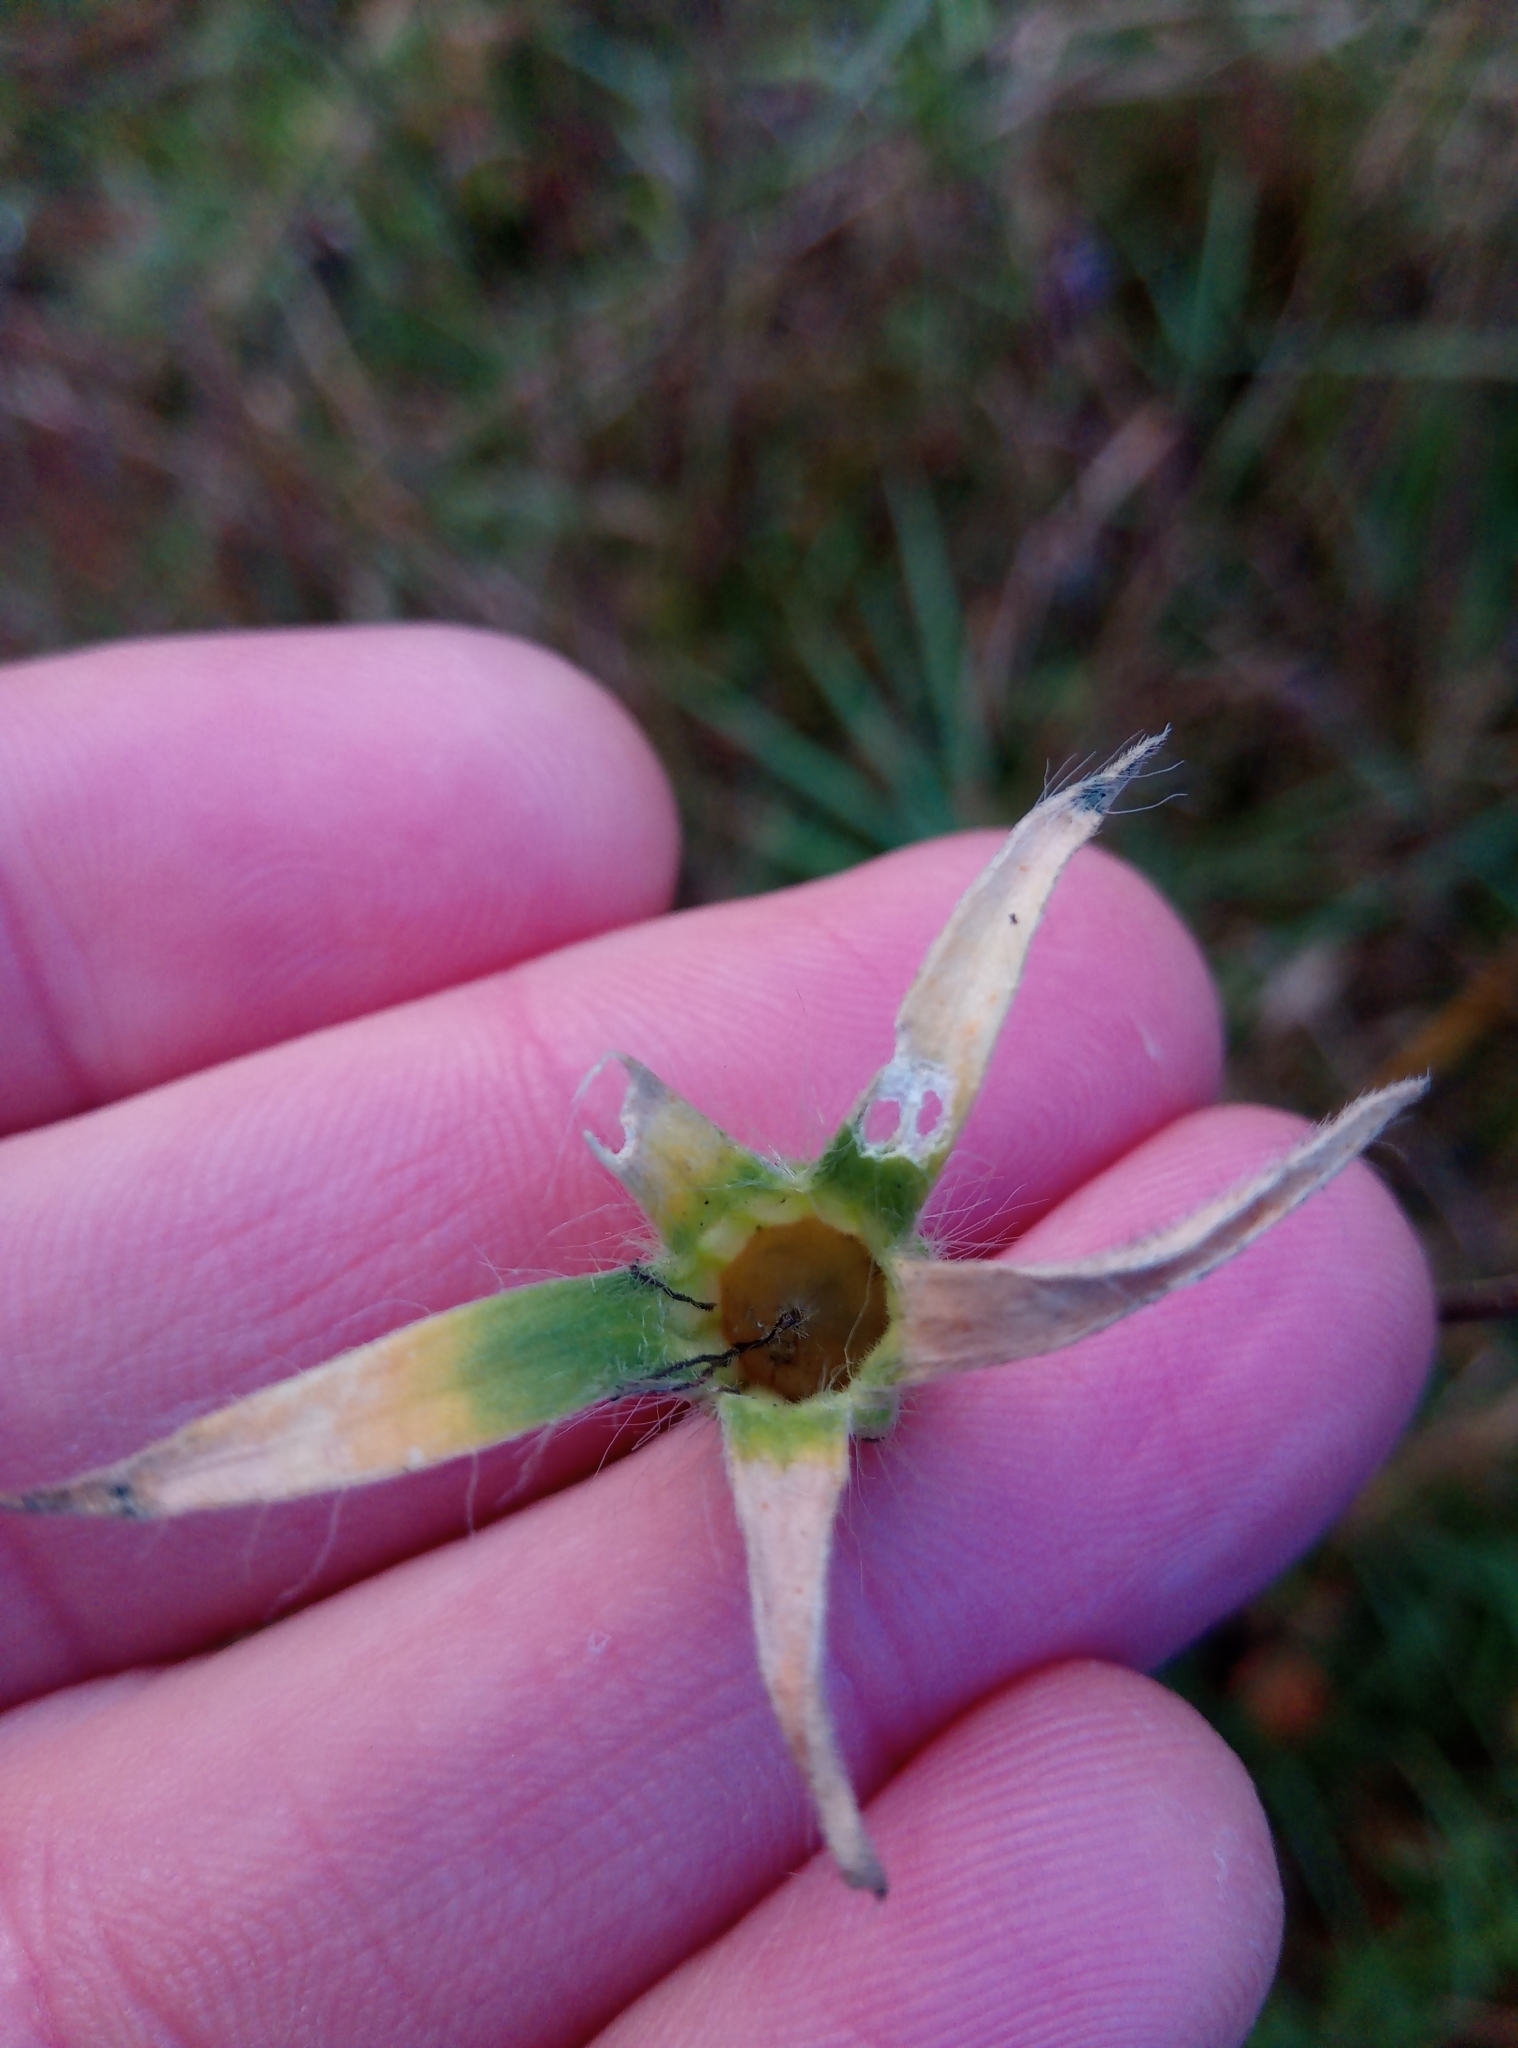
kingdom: Plantae
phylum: Tracheophyta
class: Magnoliopsida
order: Caryophyllales
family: Caryophyllaceae
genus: Agrostemma
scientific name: Agrostemma githago
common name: Common corncockle
